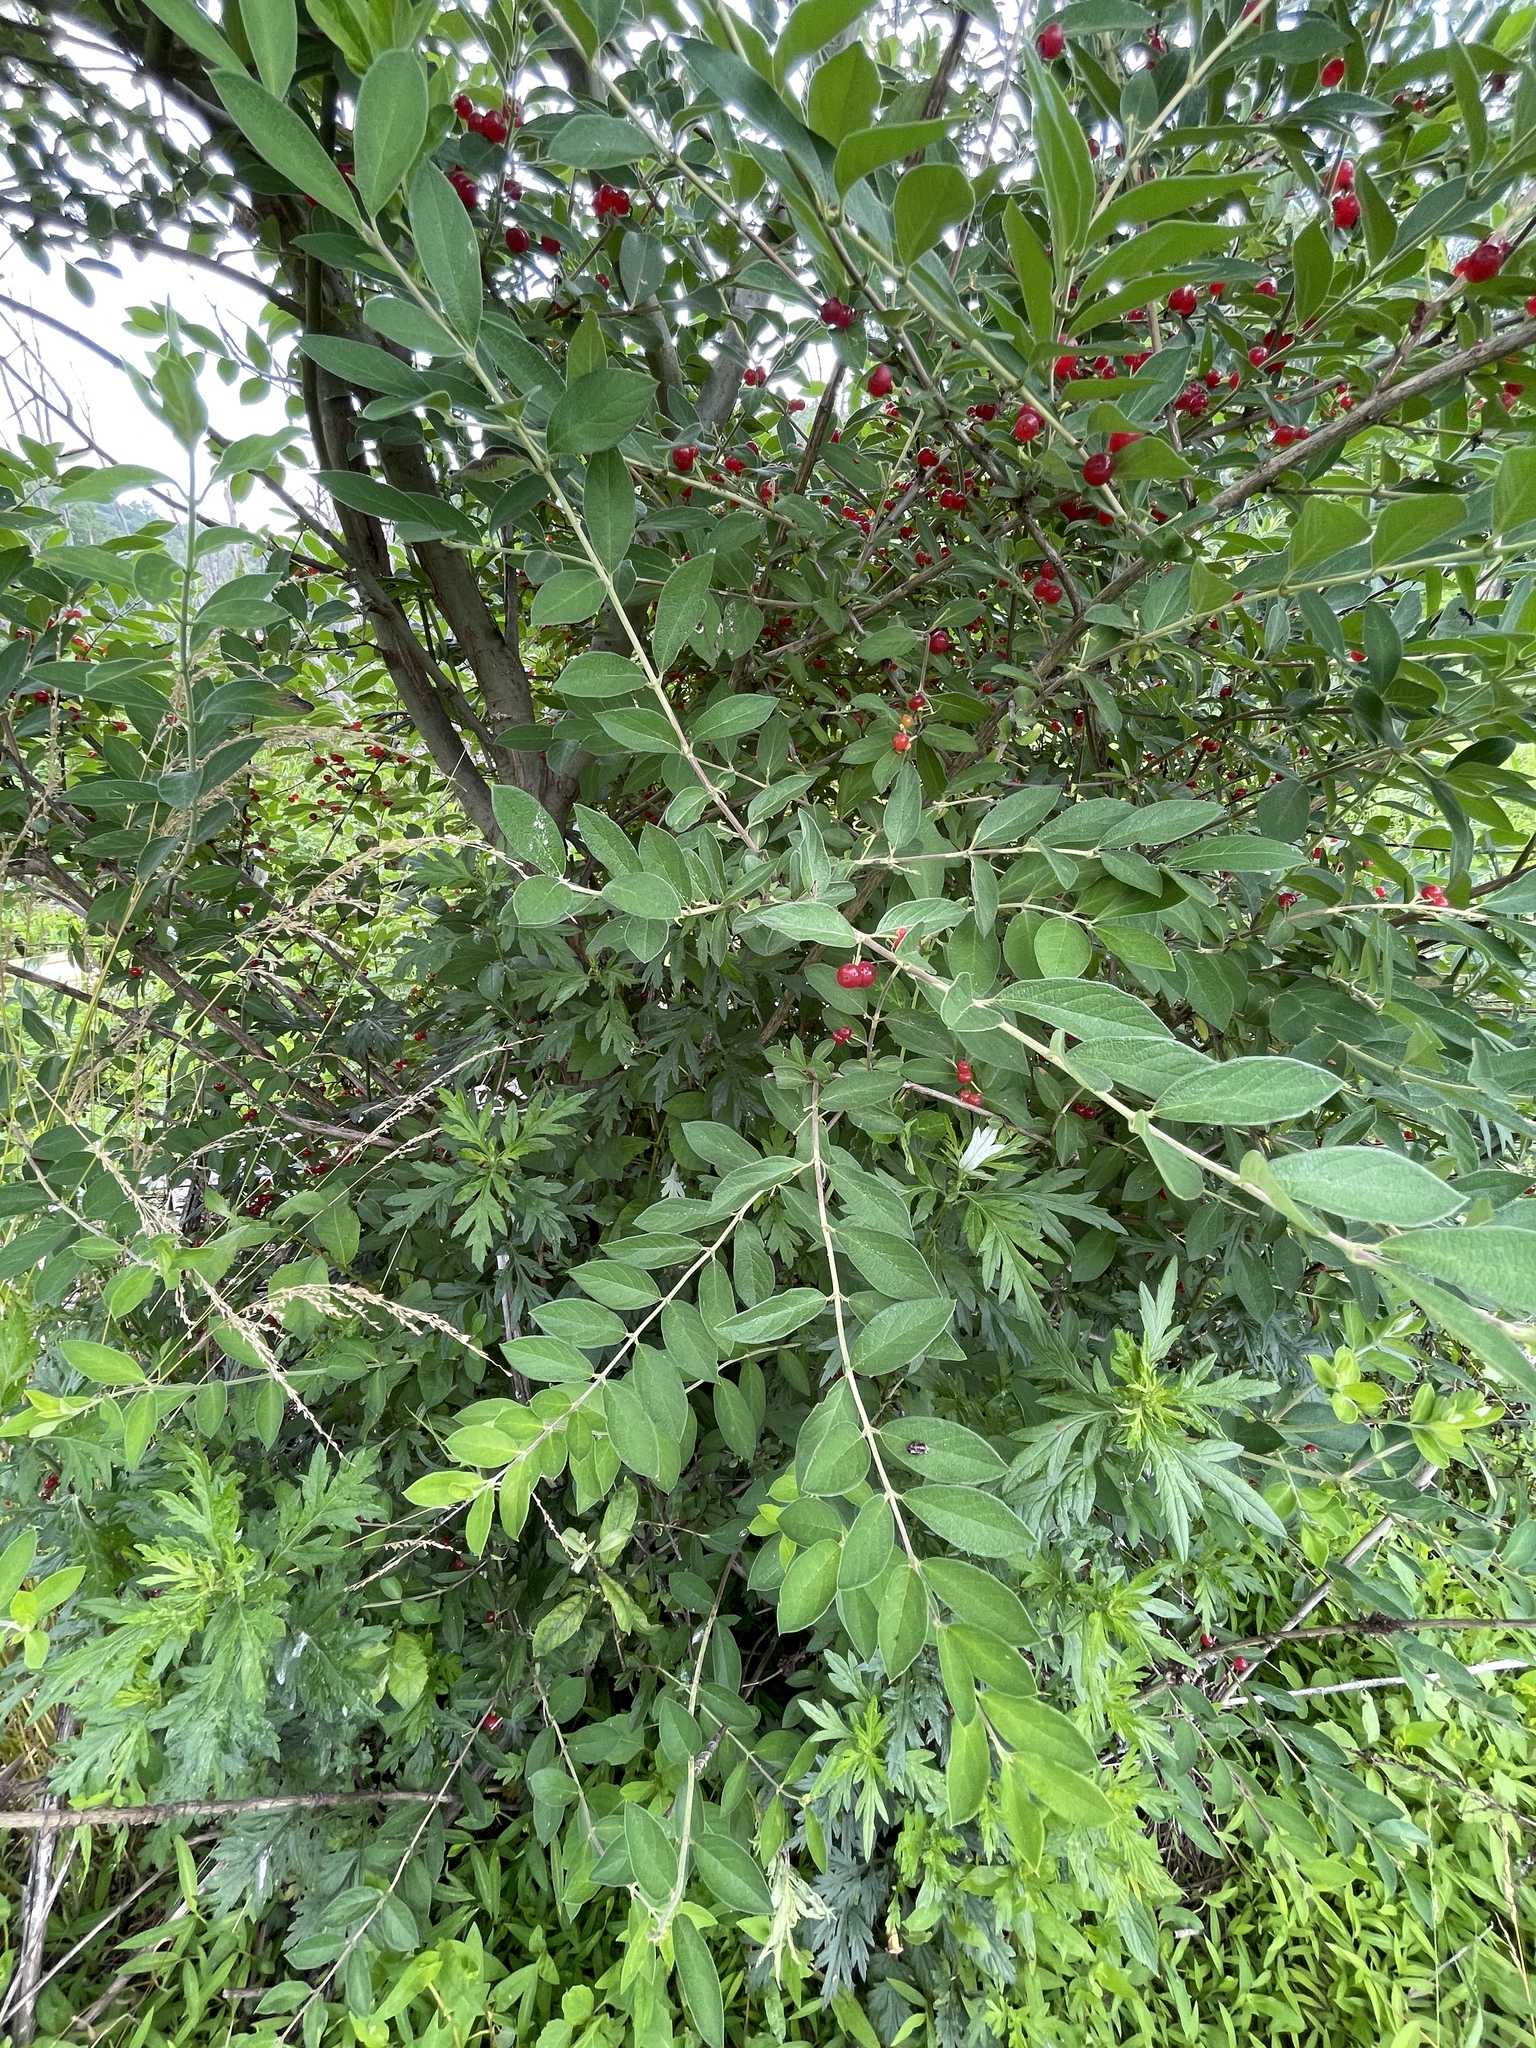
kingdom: Plantae
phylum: Tracheophyta
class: Magnoliopsida
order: Dipsacales
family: Caprifoliaceae
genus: Lonicera
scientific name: Lonicera
